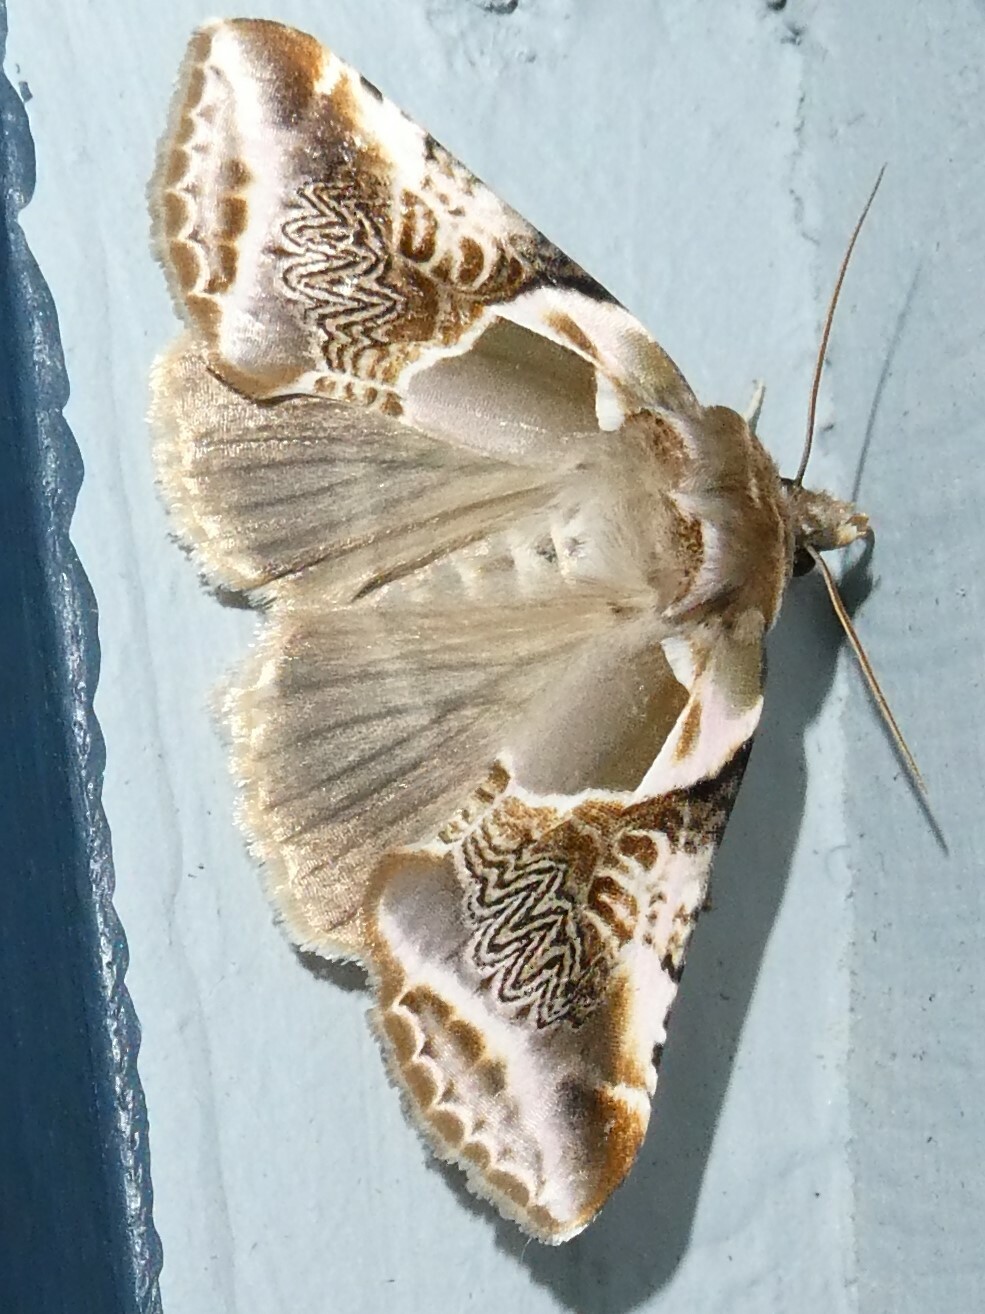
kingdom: Animalia
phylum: Arthropoda
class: Insecta
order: Lepidoptera
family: Drepanidae
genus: Habrosyne
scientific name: Habrosyne scripta
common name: Lettered habrosyne moth
